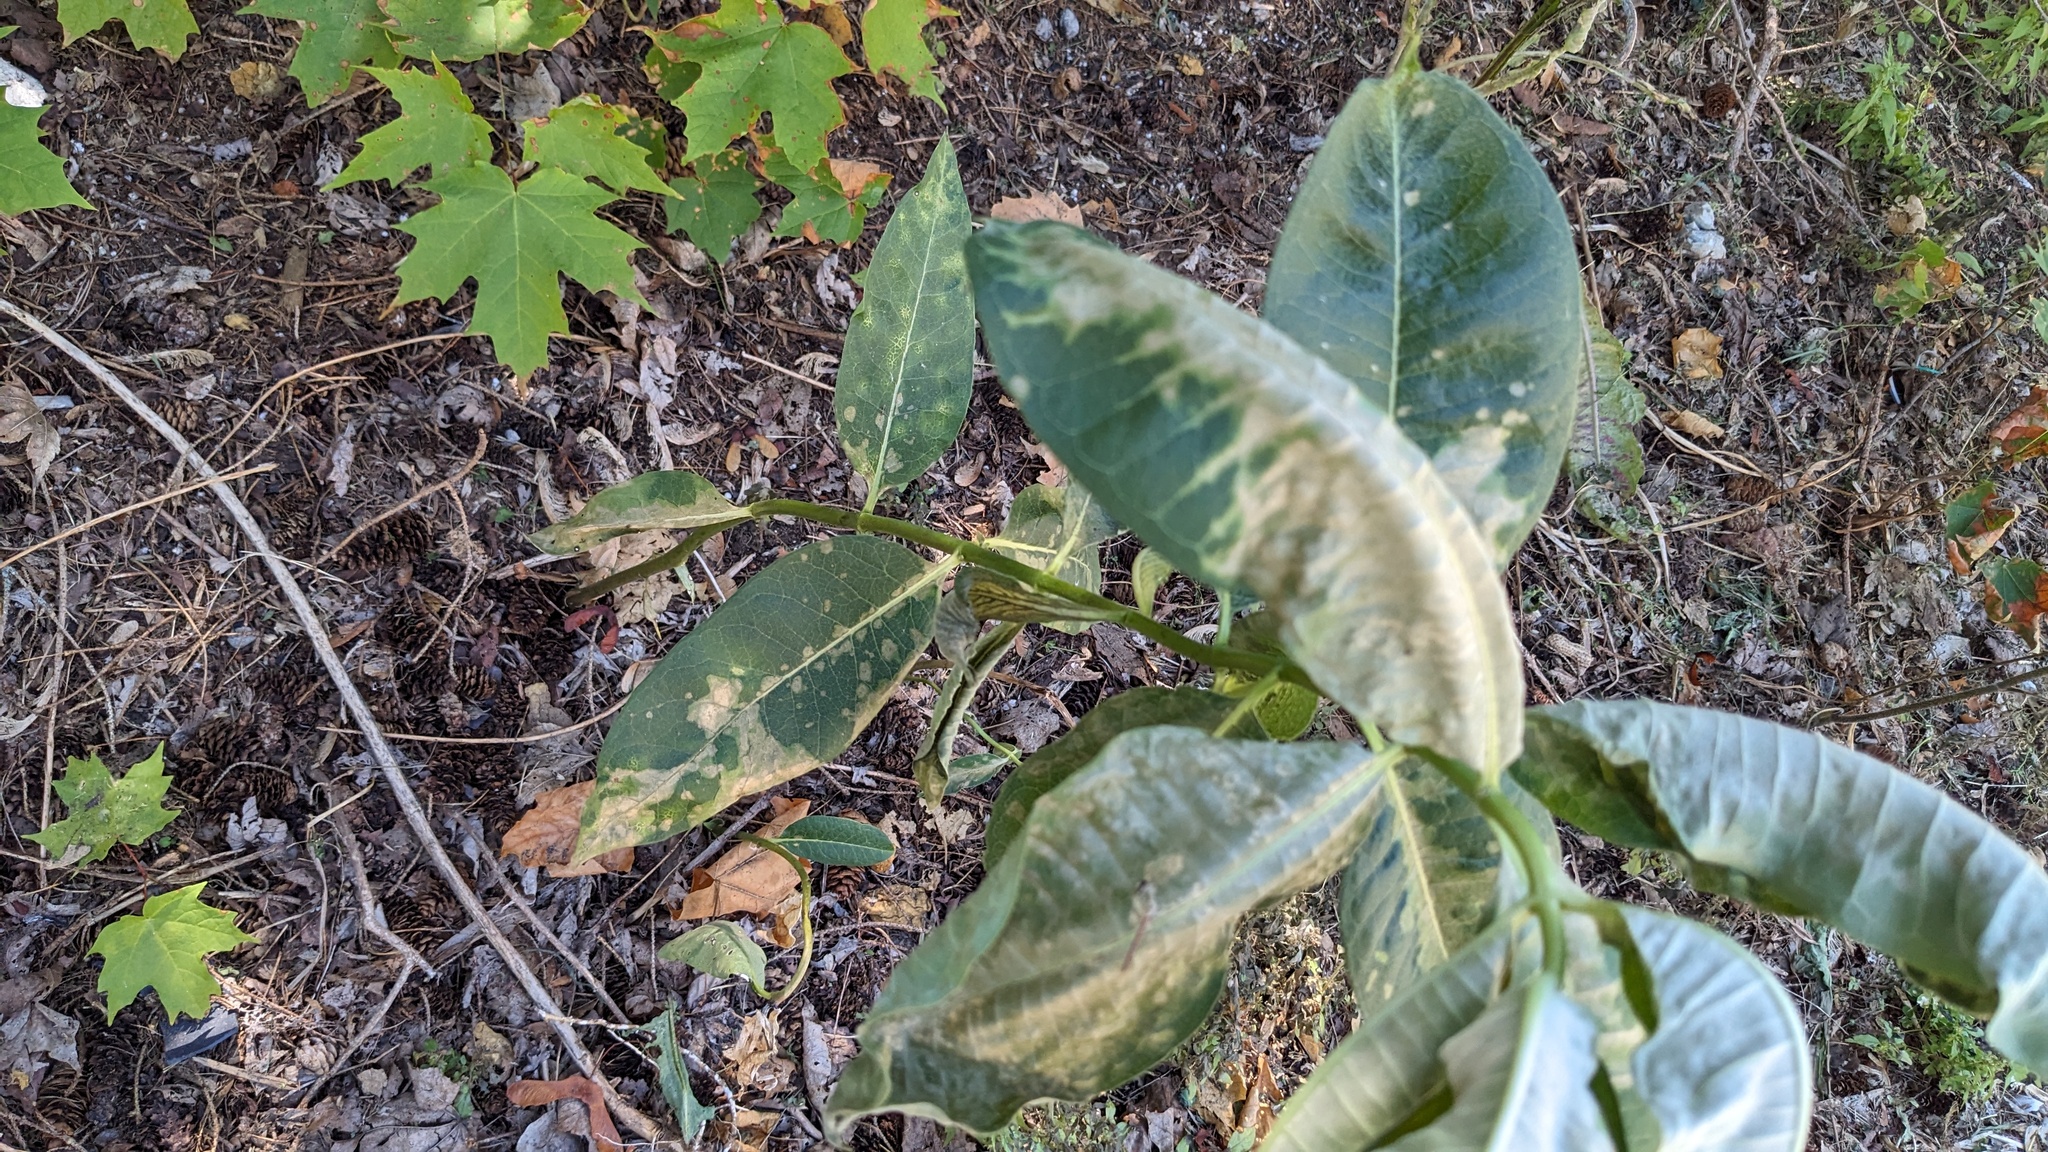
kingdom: Plantae
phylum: Tracheophyta
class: Magnoliopsida
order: Gentianales
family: Apocynaceae
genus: Asclepias
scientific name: Asclepias syriaca
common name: Common milkweed
